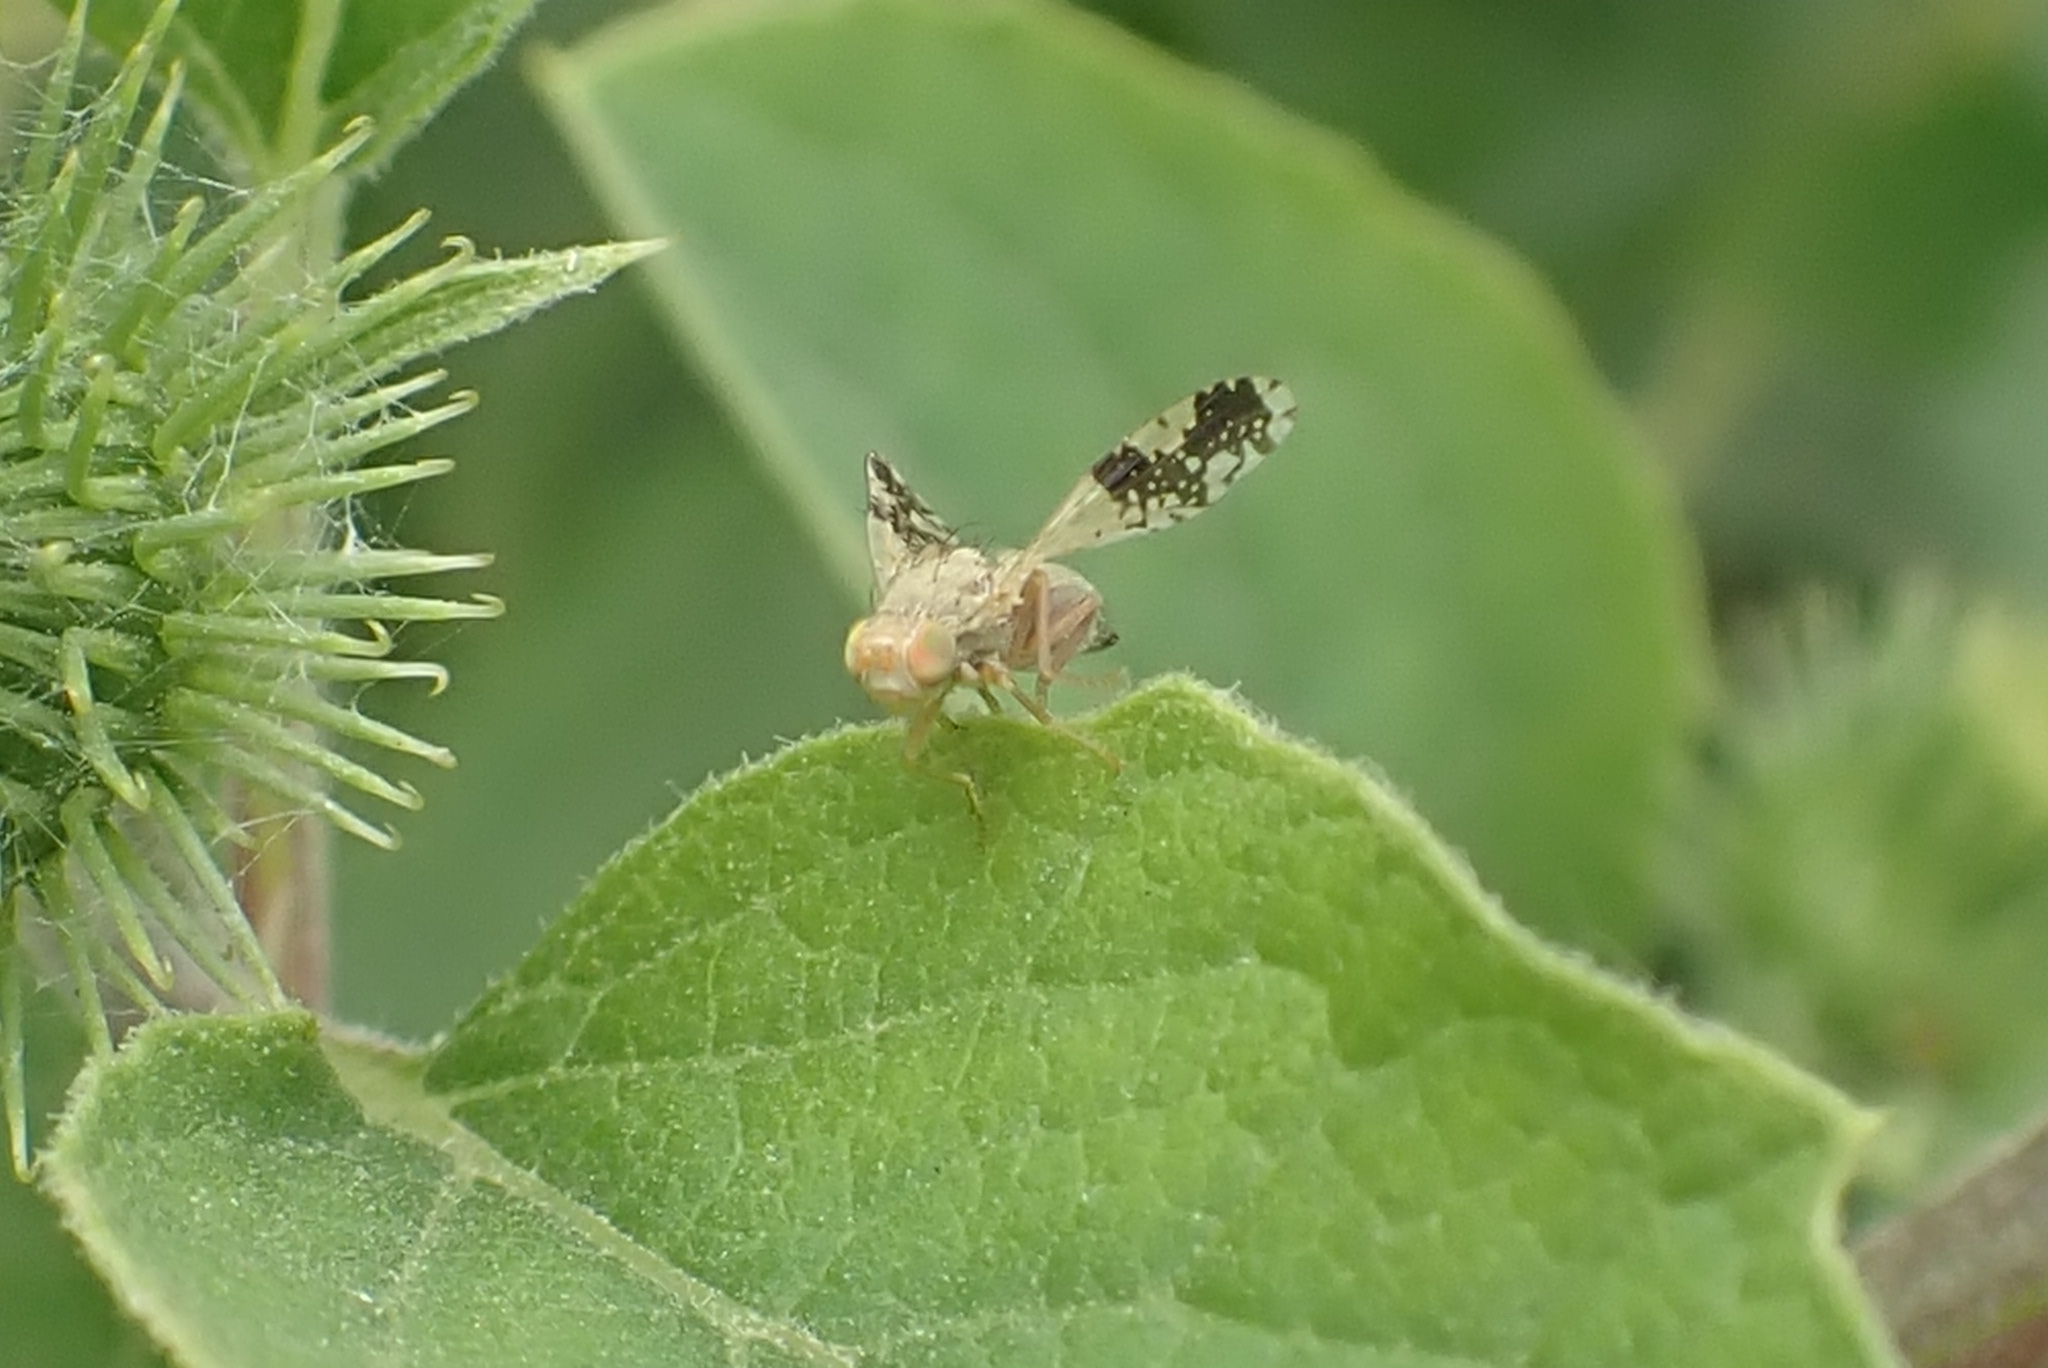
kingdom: Animalia
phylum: Arthropoda
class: Insecta
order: Diptera
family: Tephritidae
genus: Tephritis
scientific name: Tephritis bardanae
